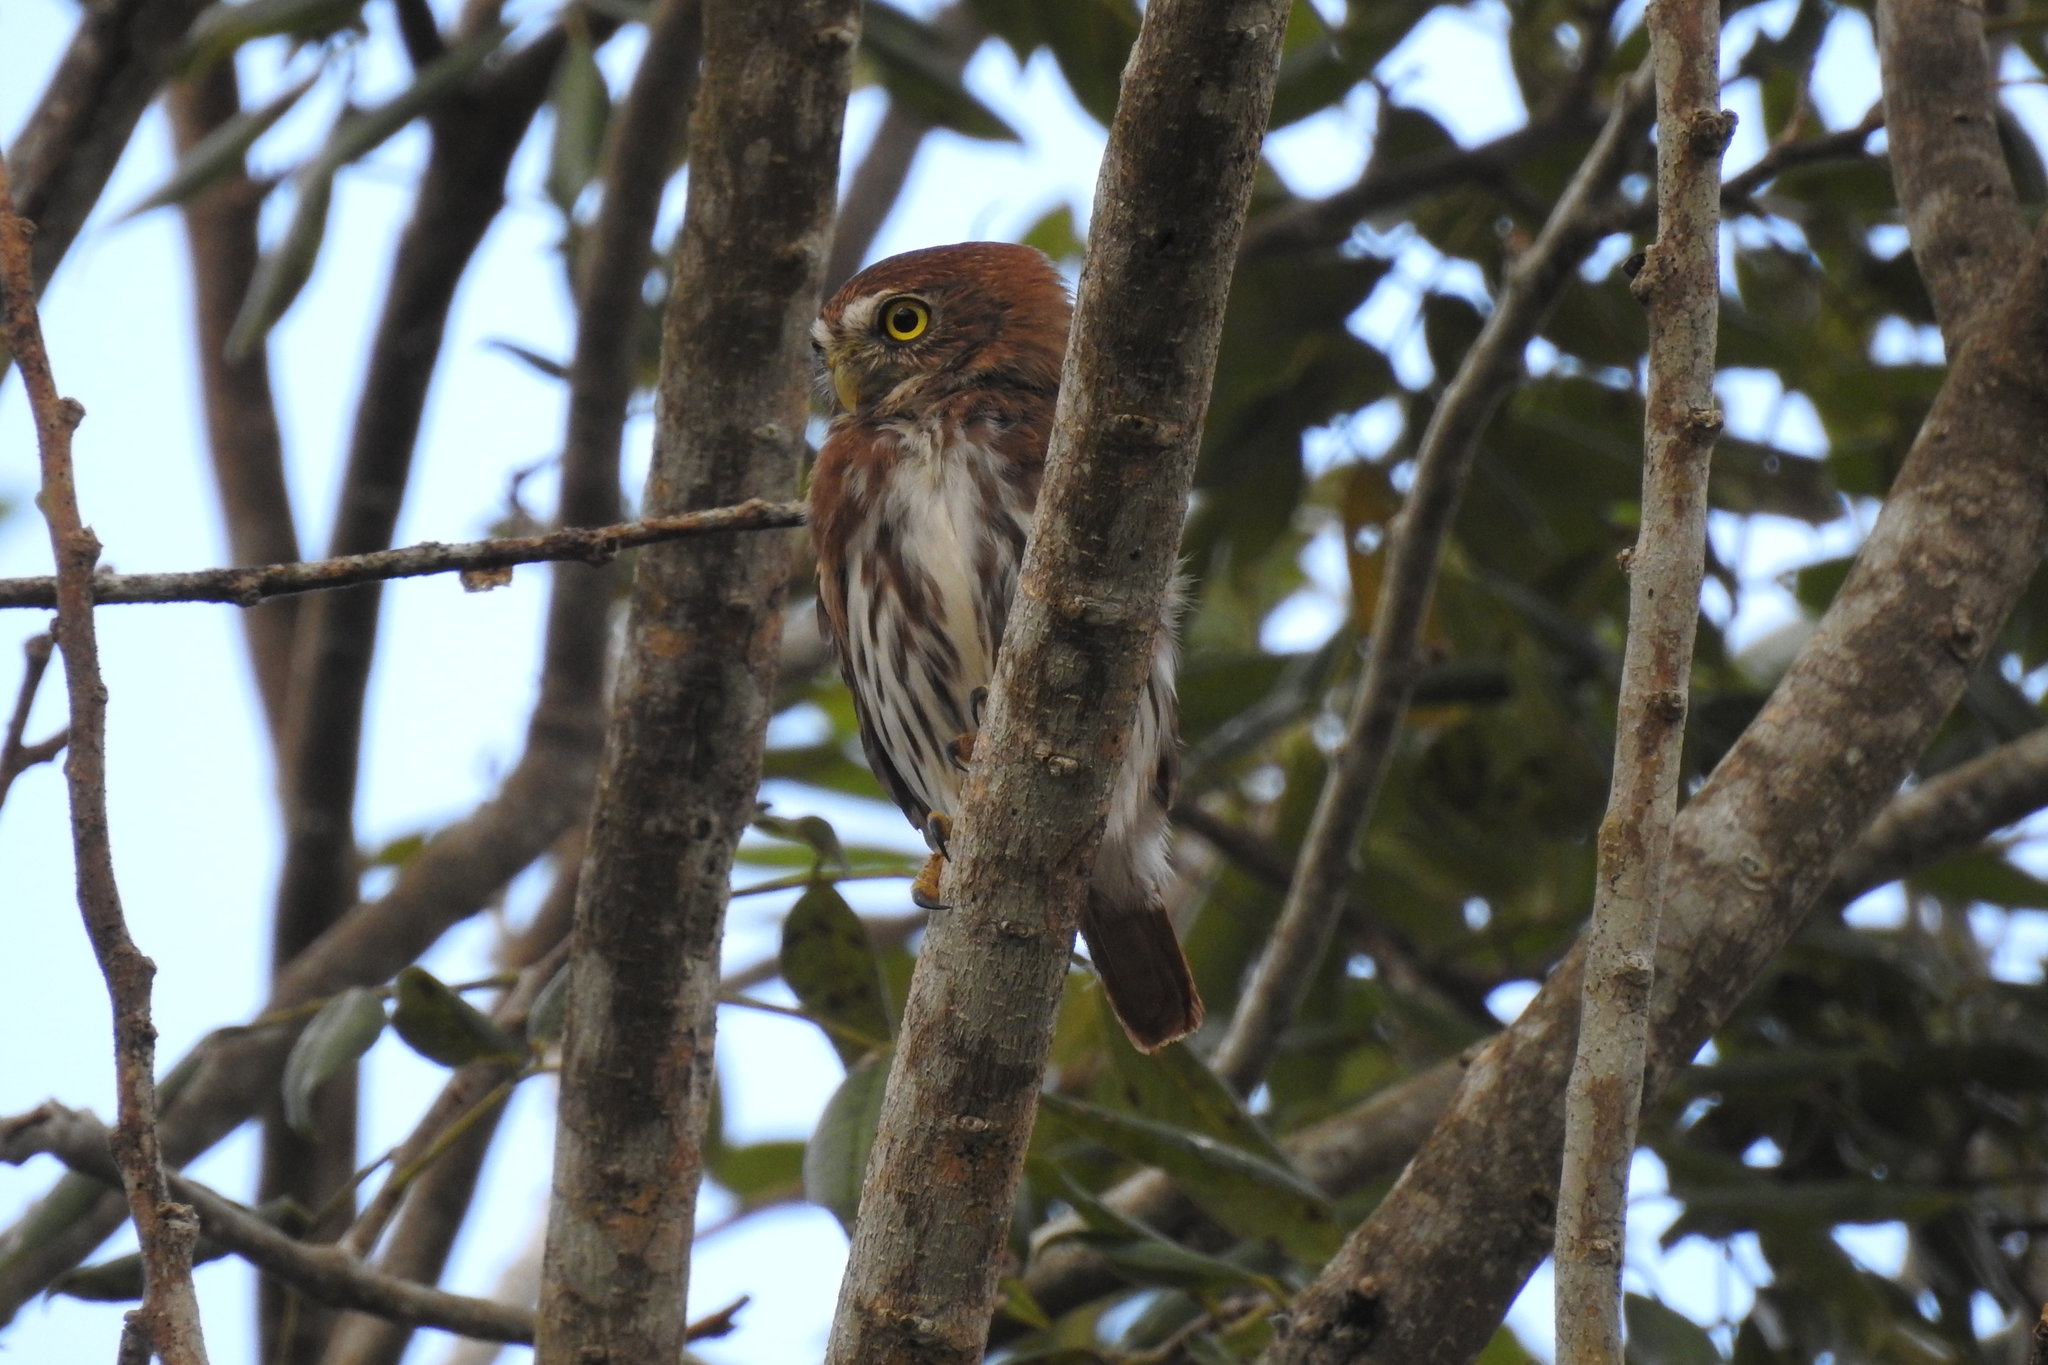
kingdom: Animalia
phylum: Chordata
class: Aves
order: Strigiformes
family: Strigidae
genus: Glaucidium
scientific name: Glaucidium brasilianum
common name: Ferruginous pygmy-owl
